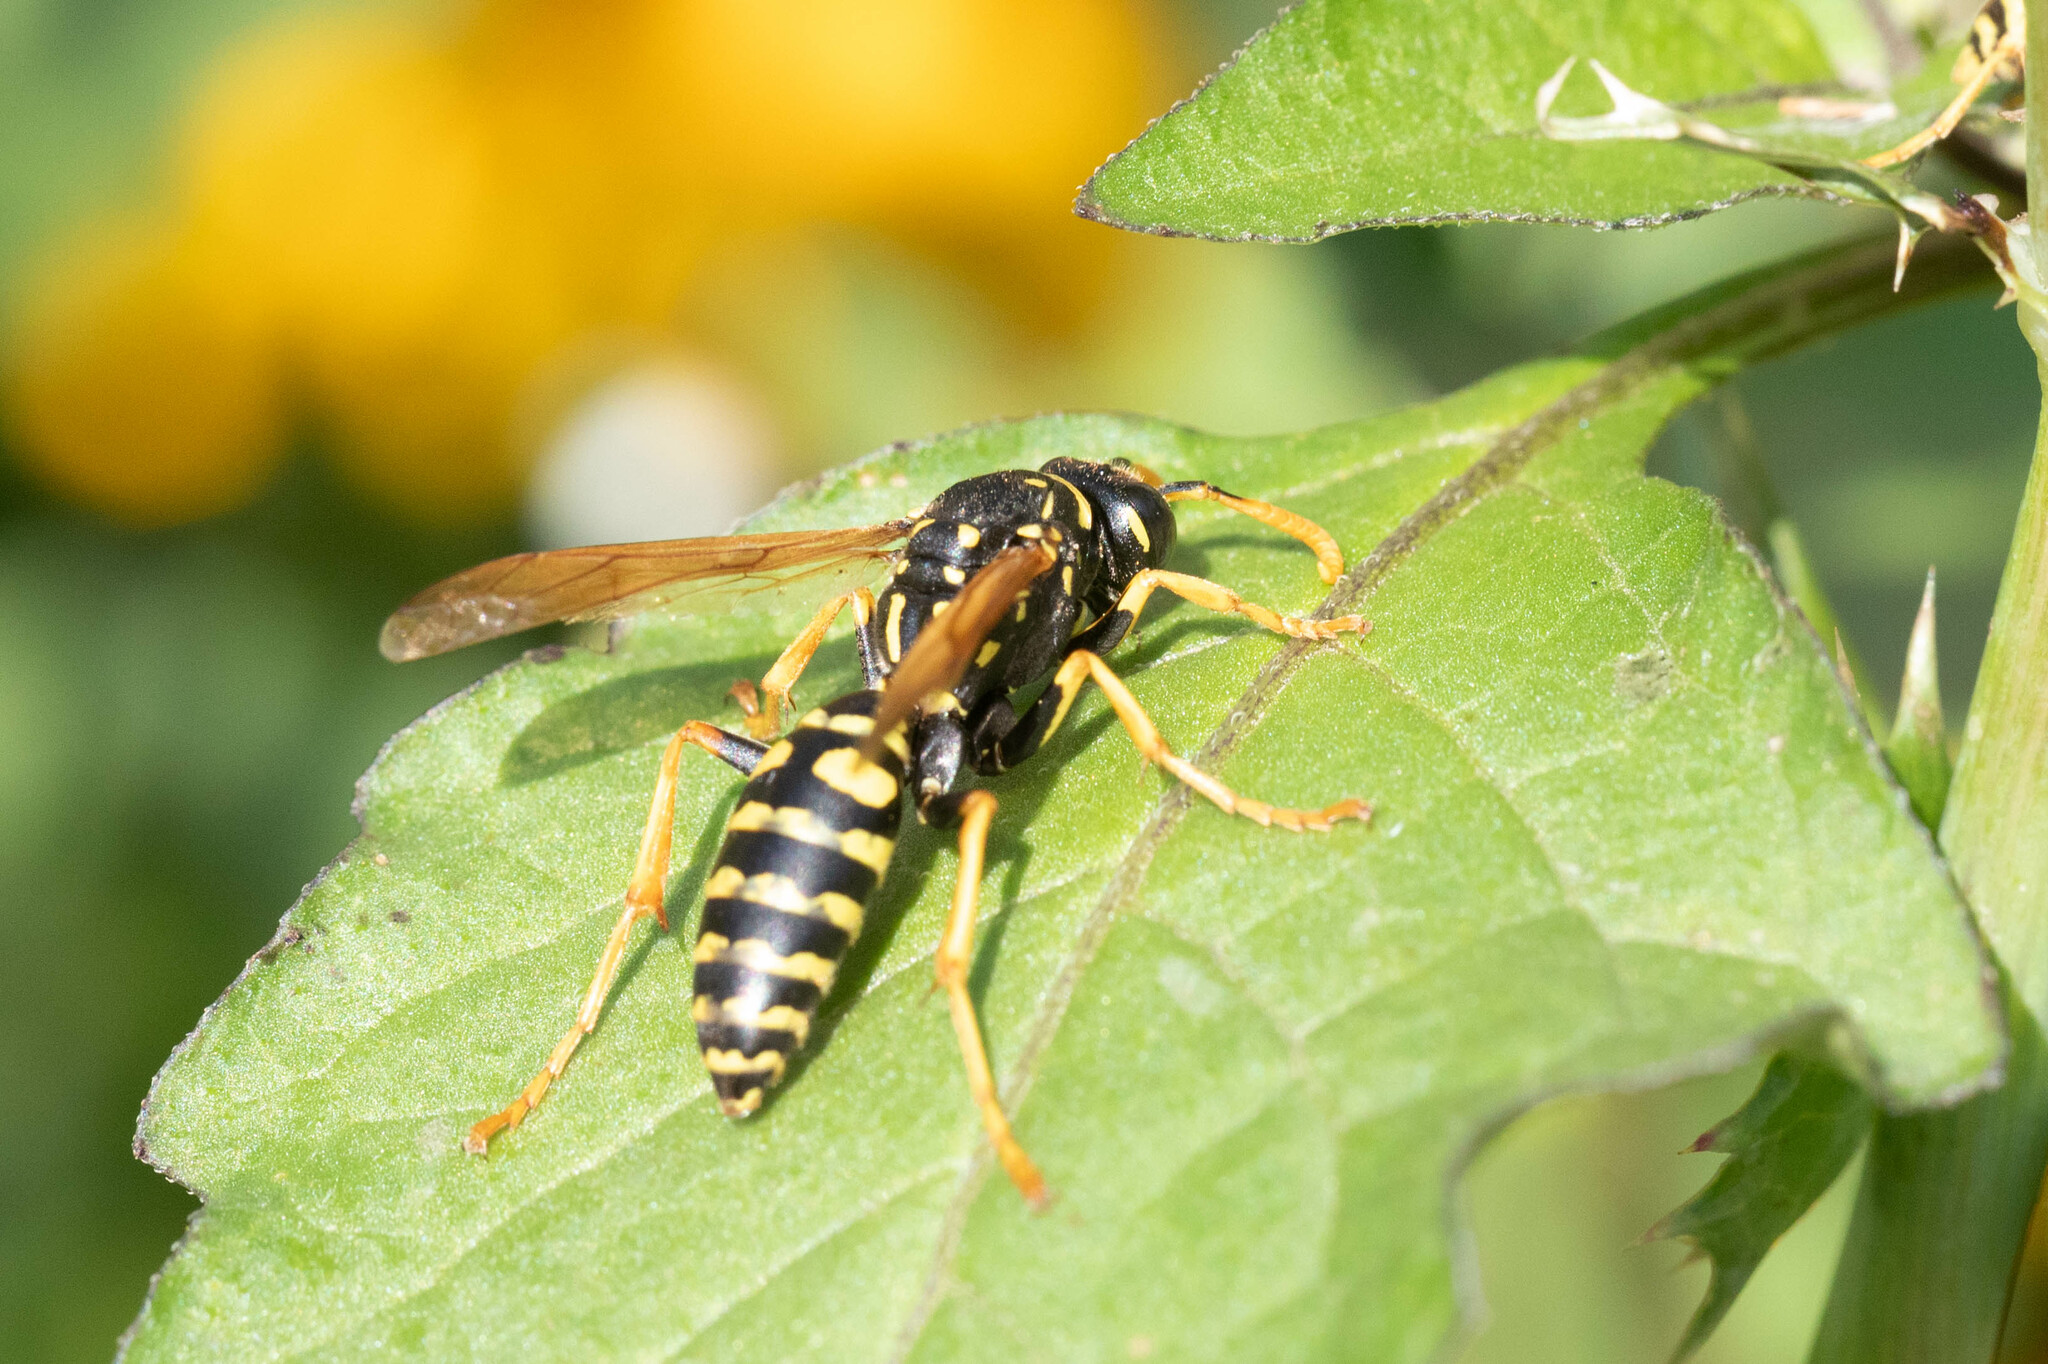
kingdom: Animalia
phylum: Arthropoda
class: Insecta
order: Hymenoptera
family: Eumenidae
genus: Polistes
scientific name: Polistes dominula
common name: Paper wasp
